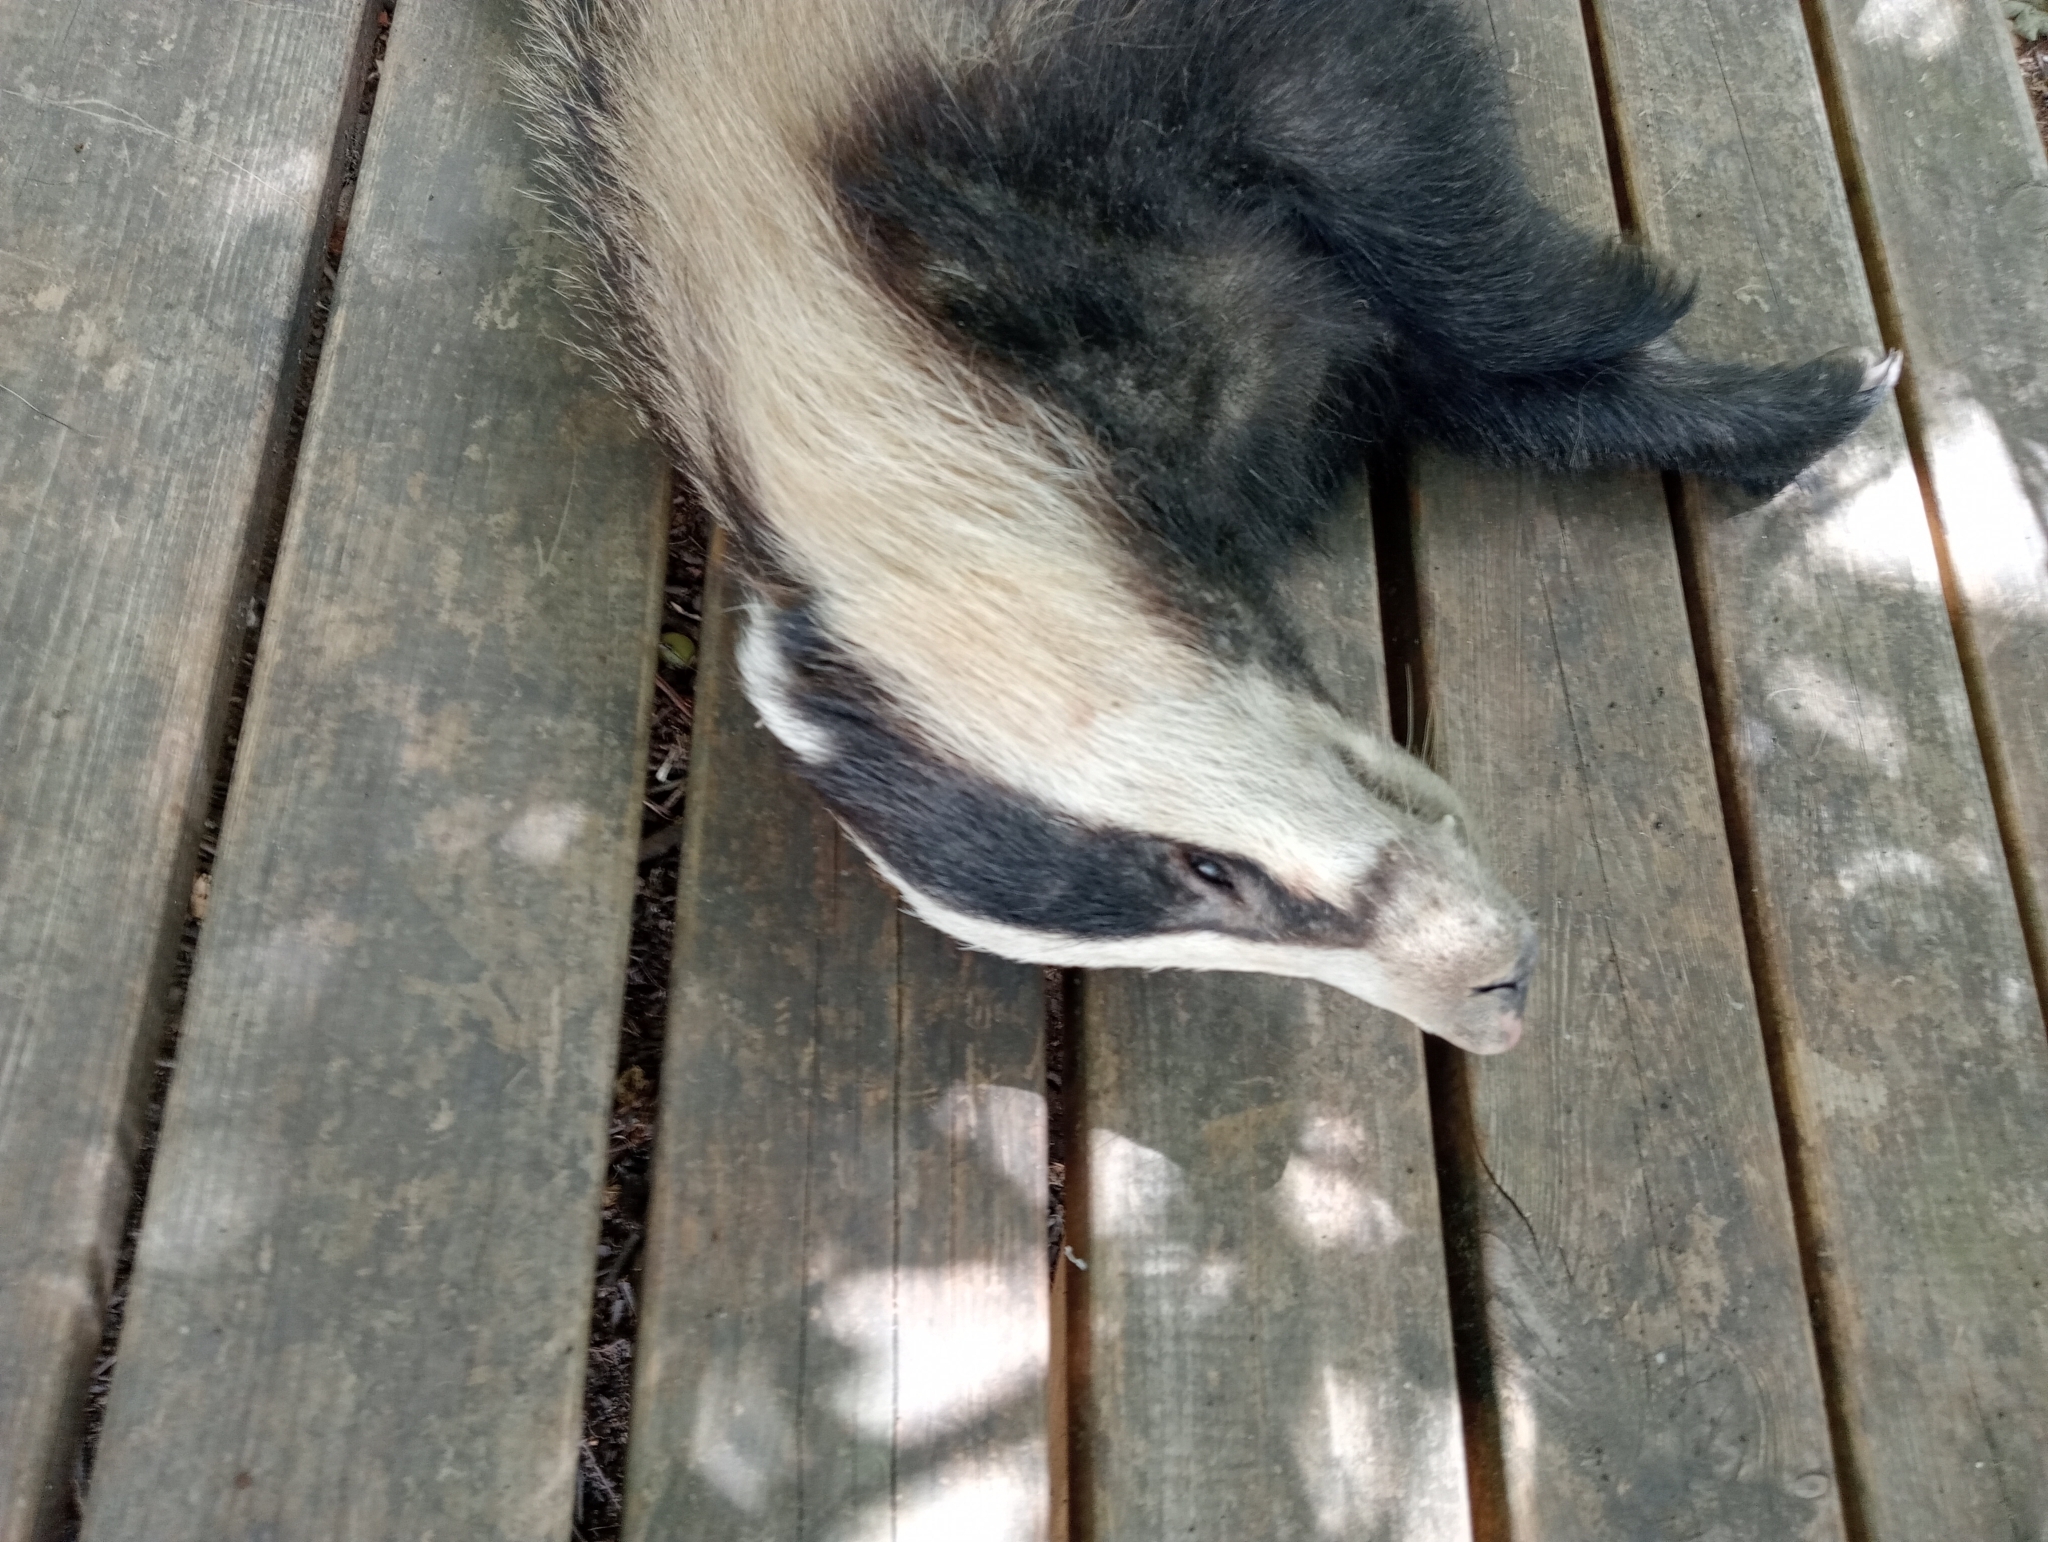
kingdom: Animalia
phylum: Chordata
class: Mammalia
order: Carnivora
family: Mustelidae
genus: Meles
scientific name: Meles meles
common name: Eurasian badger
